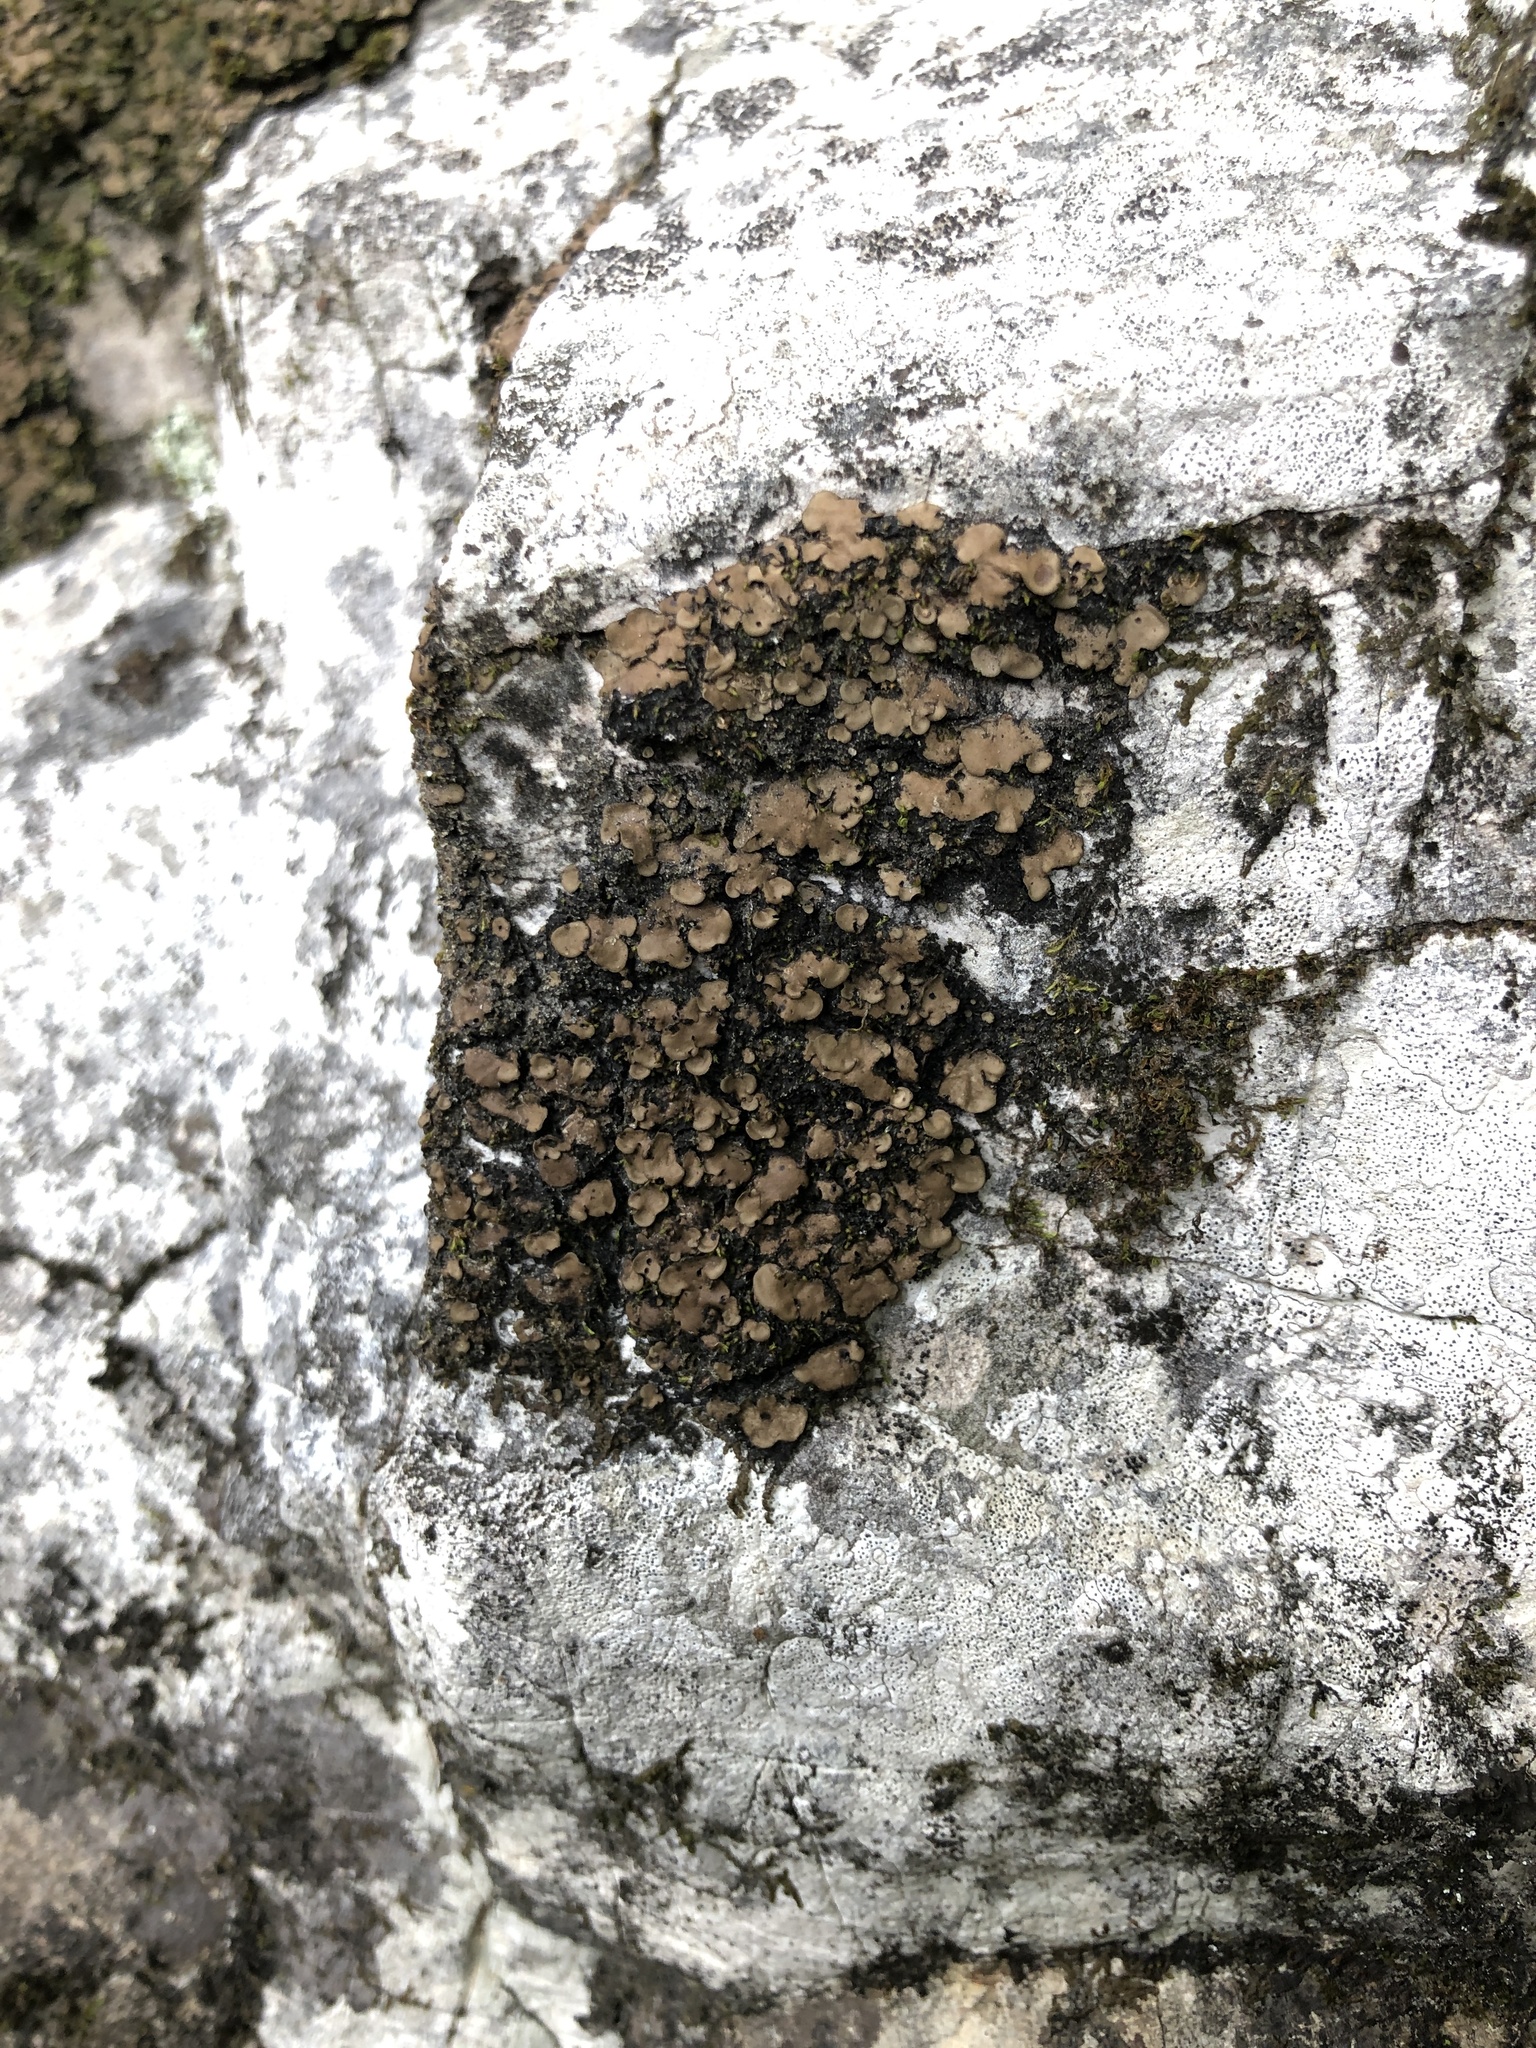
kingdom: Fungi
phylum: Ascomycota
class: Eurotiomycetes
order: Verrucariales
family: Verrucariaceae
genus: Placidium
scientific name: Placidium arboreum
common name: Tree stipplescale
